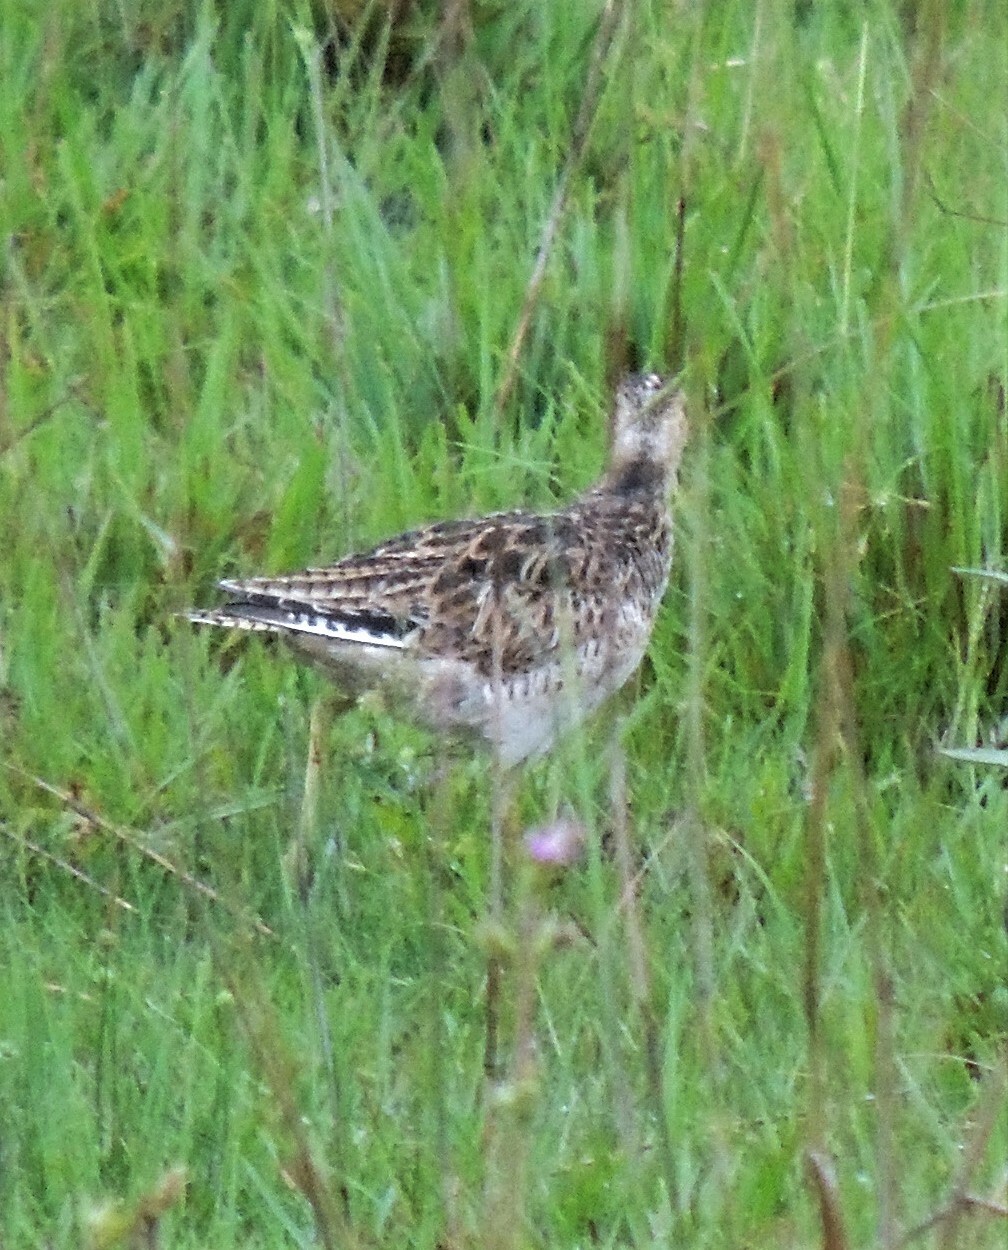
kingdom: Animalia
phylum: Chordata
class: Aves
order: Charadriiformes
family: Scolopacidae
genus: Bartramia
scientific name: Bartramia longicauda
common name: Upland sandpiper
